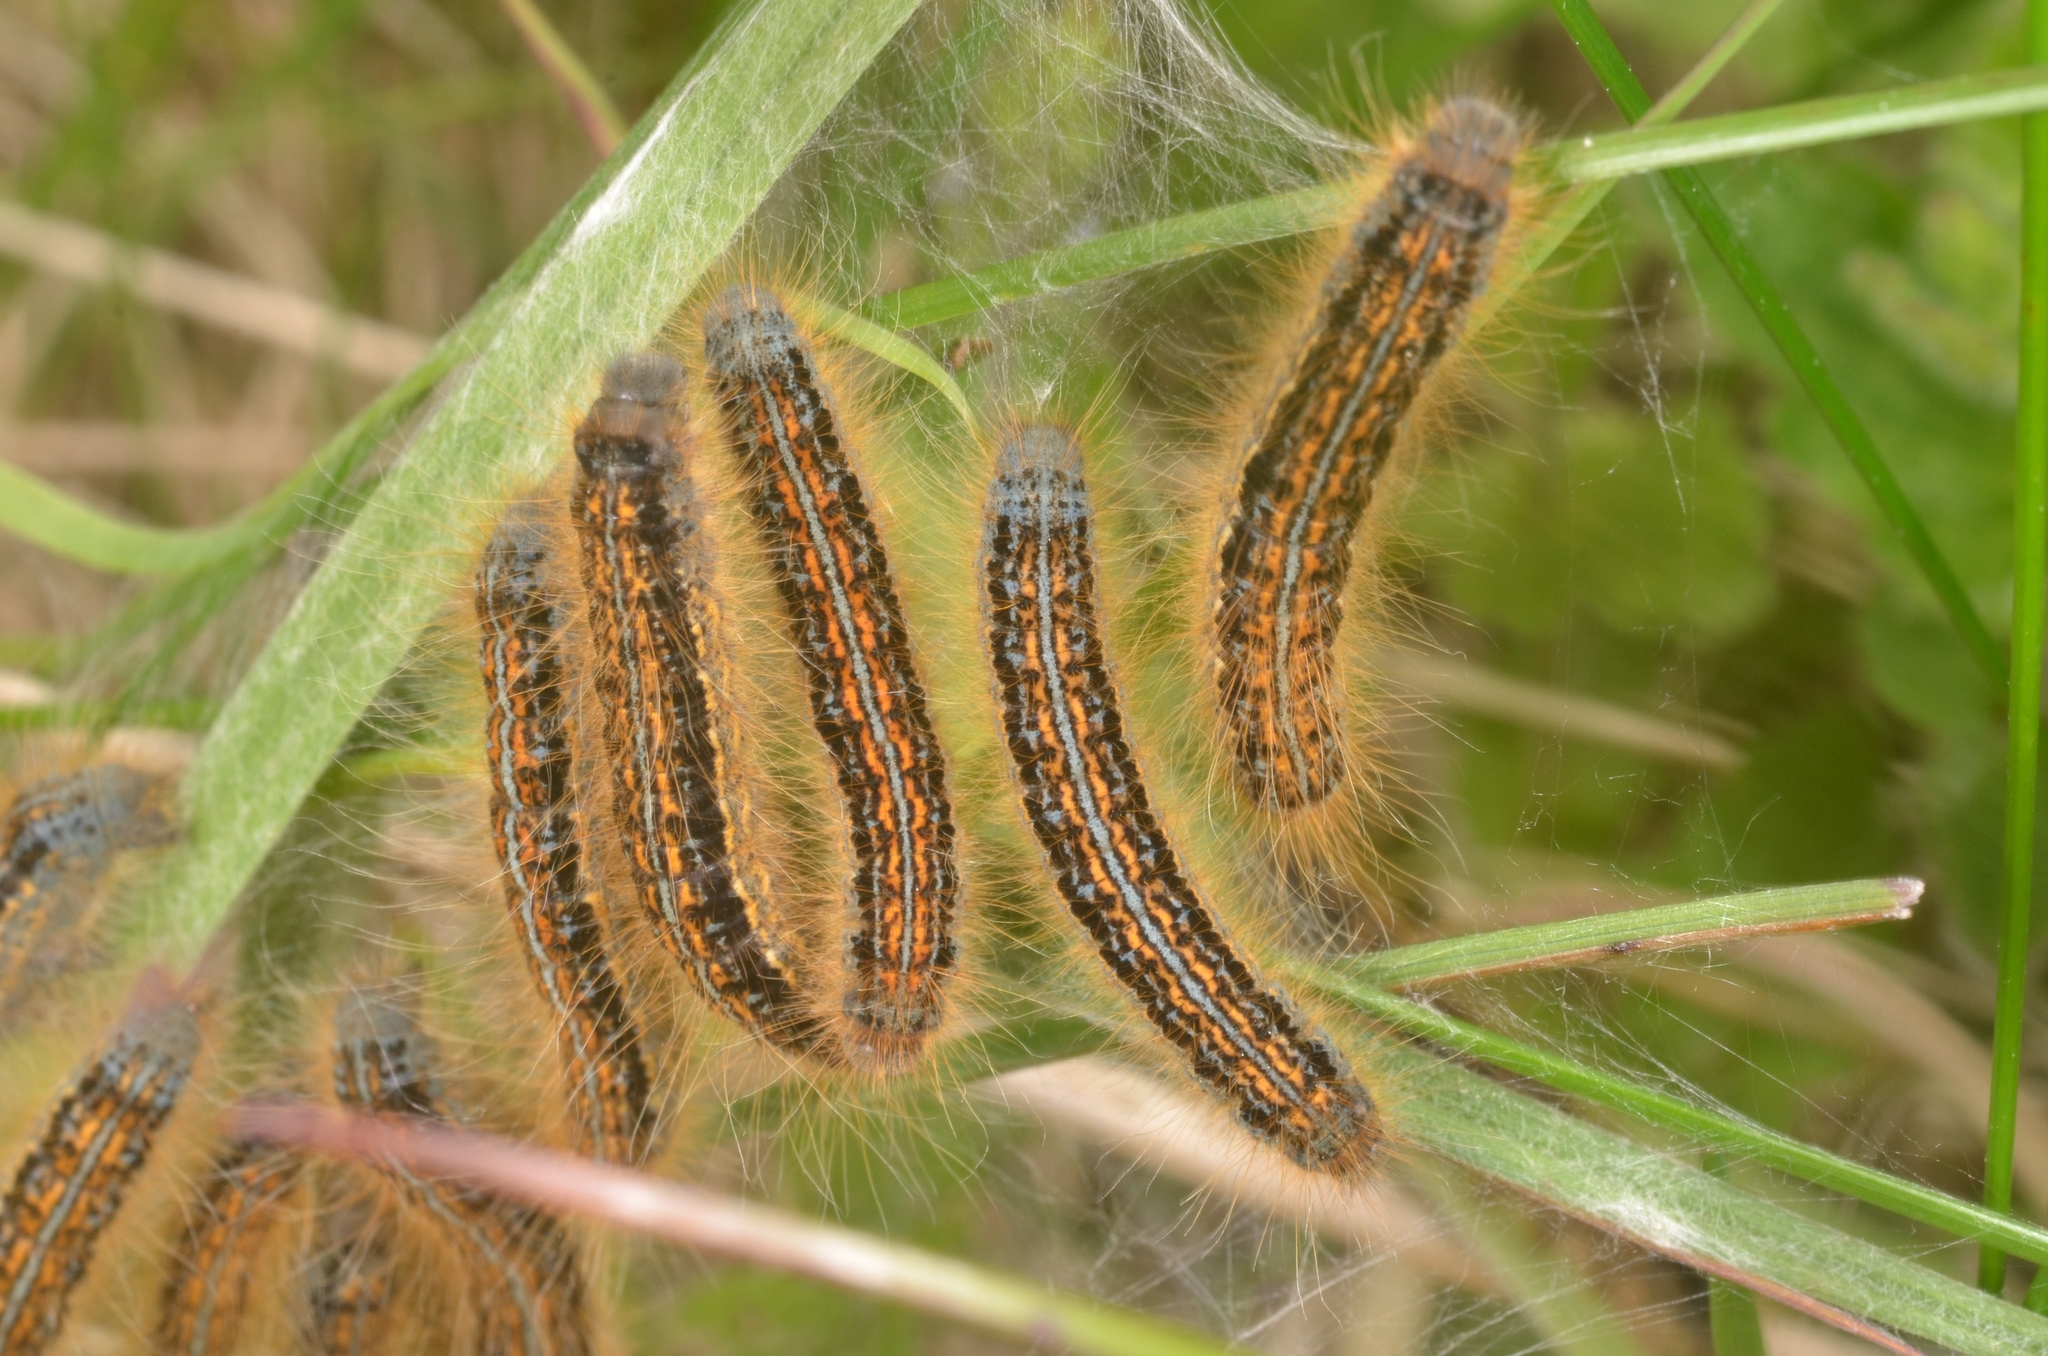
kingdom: Animalia
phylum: Arthropoda
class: Insecta
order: Lepidoptera
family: Lasiocampidae
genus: Malacosoma
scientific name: Malacosoma castrense
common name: Ground lackey
